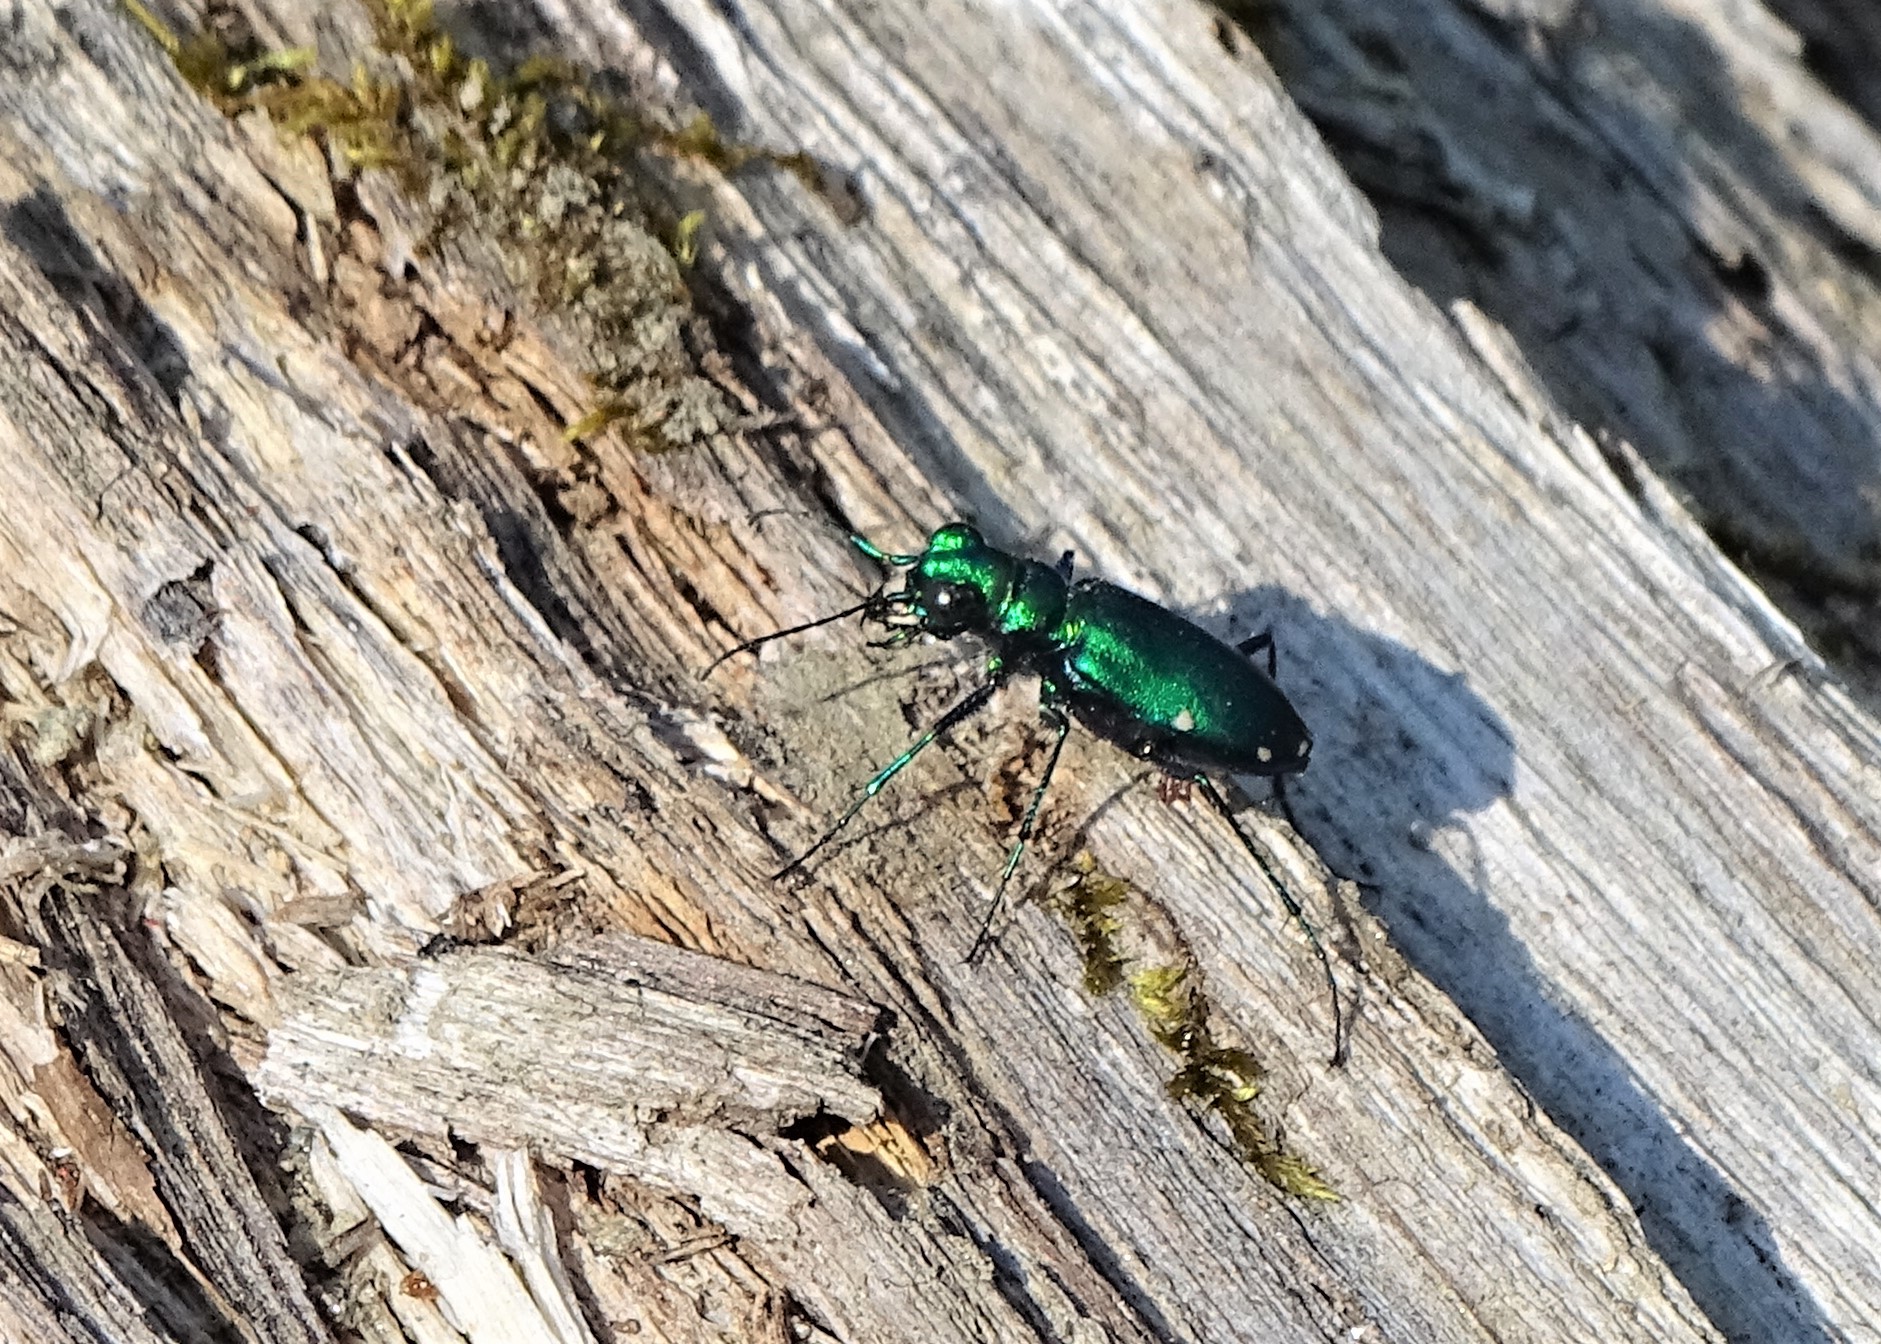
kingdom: Animalia
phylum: Arthropoda
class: Insecta
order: Coleoptera
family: Carabidae
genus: Cicindela
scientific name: Cicindela sexguttata
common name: Six-spotted tiger beetle
